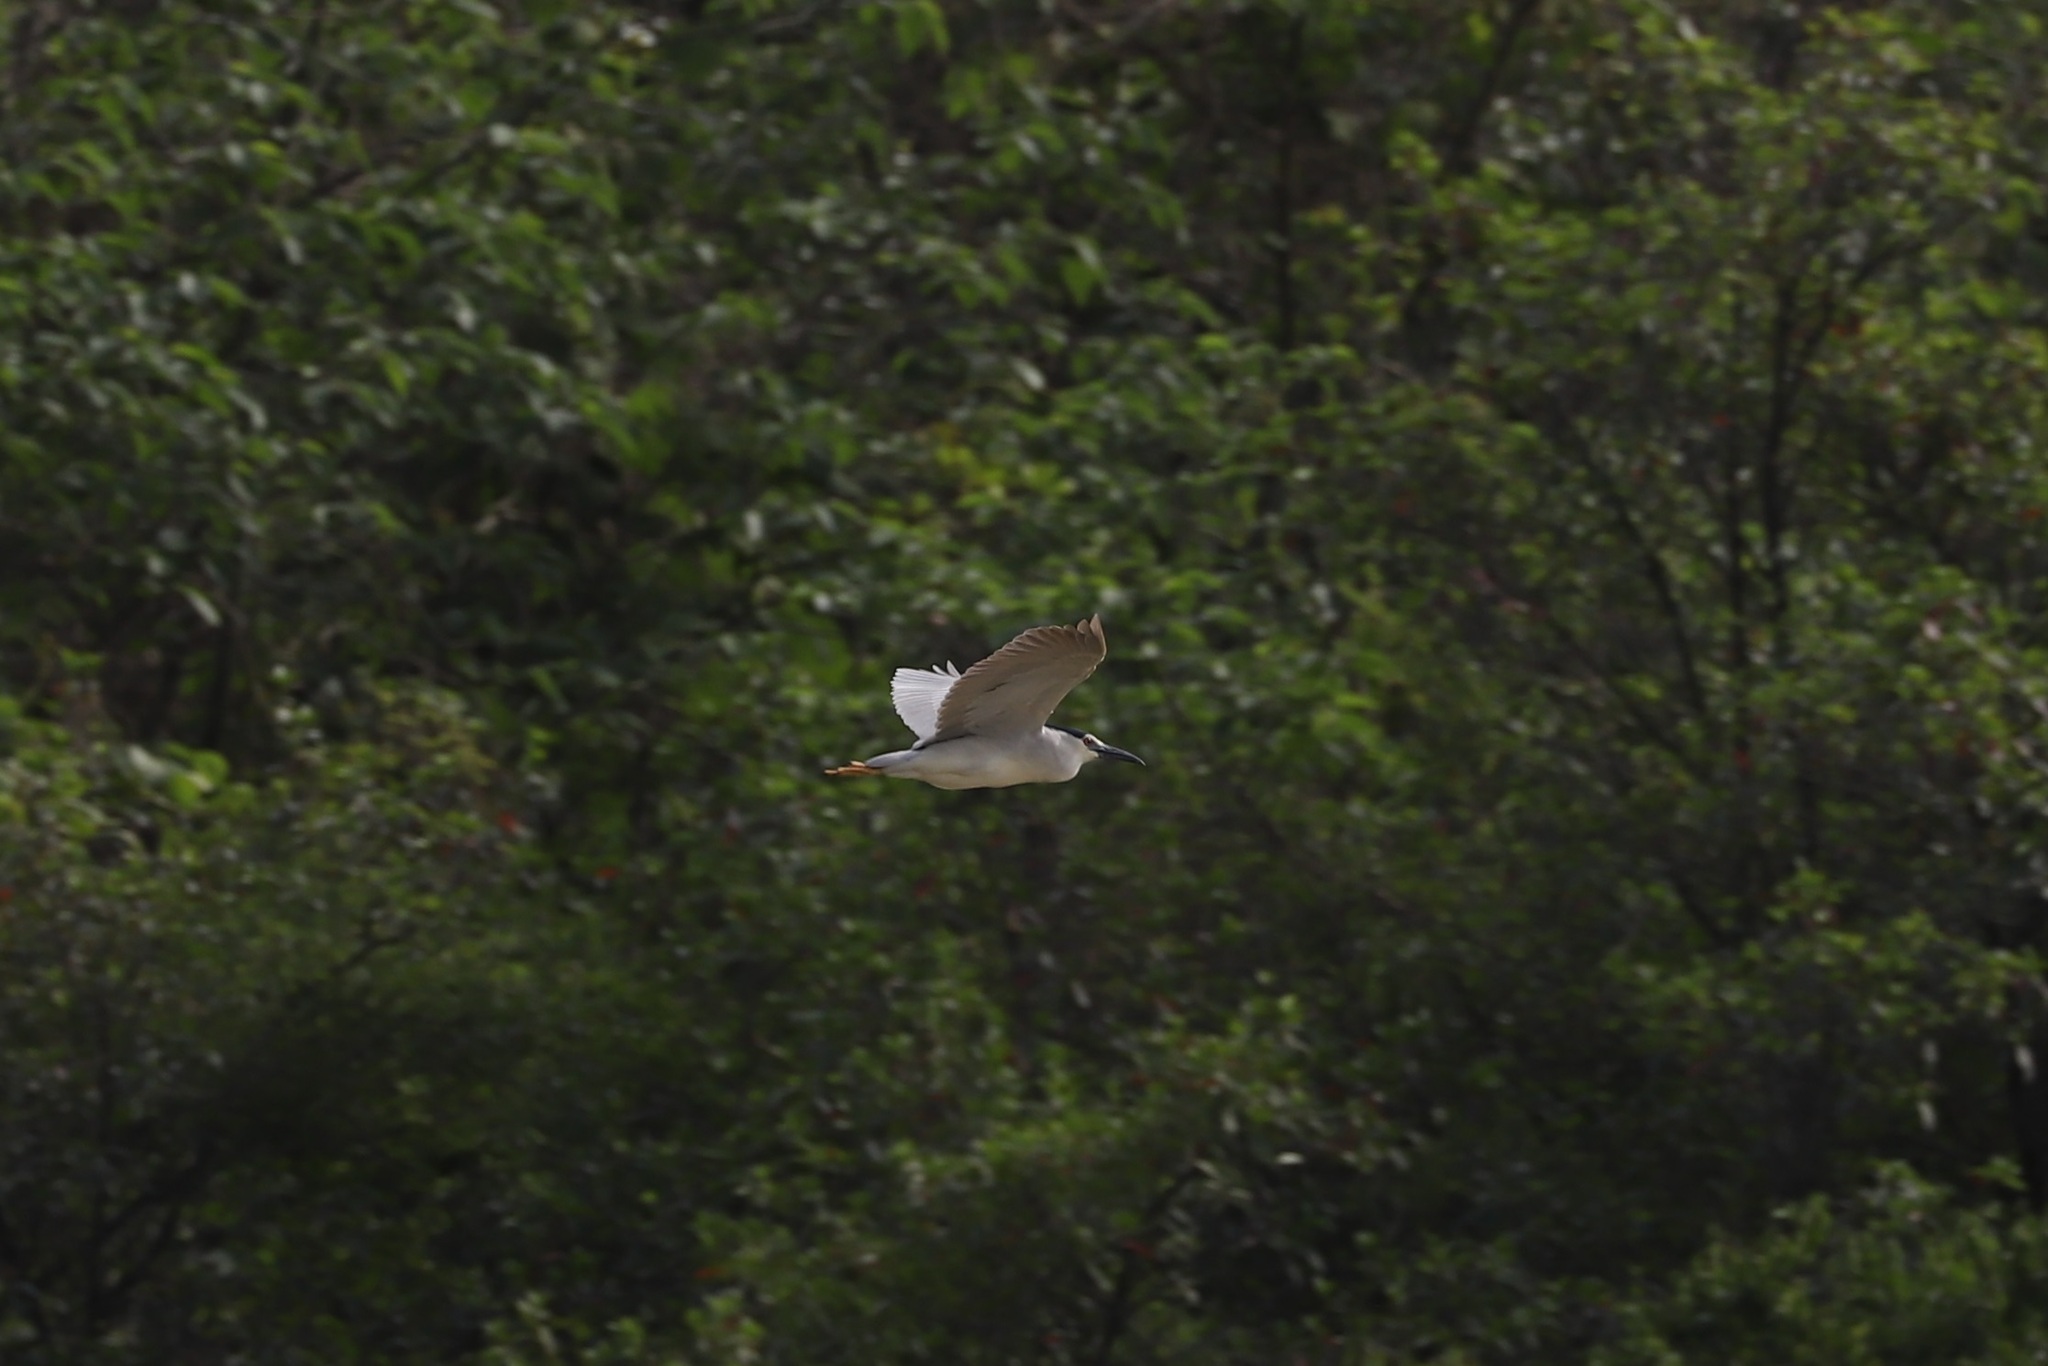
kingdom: Animalia
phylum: Chordata
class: Aves
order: Pelecaniformes
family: Ardeidae
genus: Nycticorax
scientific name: Nycticorax nycticorax
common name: Black-crowned night heron
